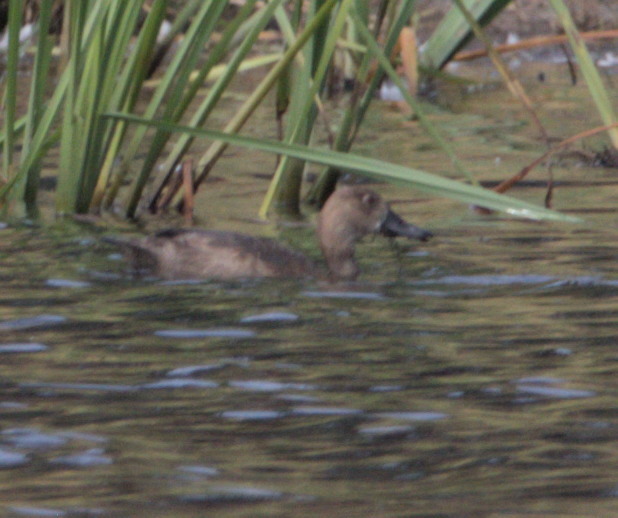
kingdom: Animalia
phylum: Chordata
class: Aves
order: Anseriformes
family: Anatidae
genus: Aythya
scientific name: Aythya americana
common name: Redhead
